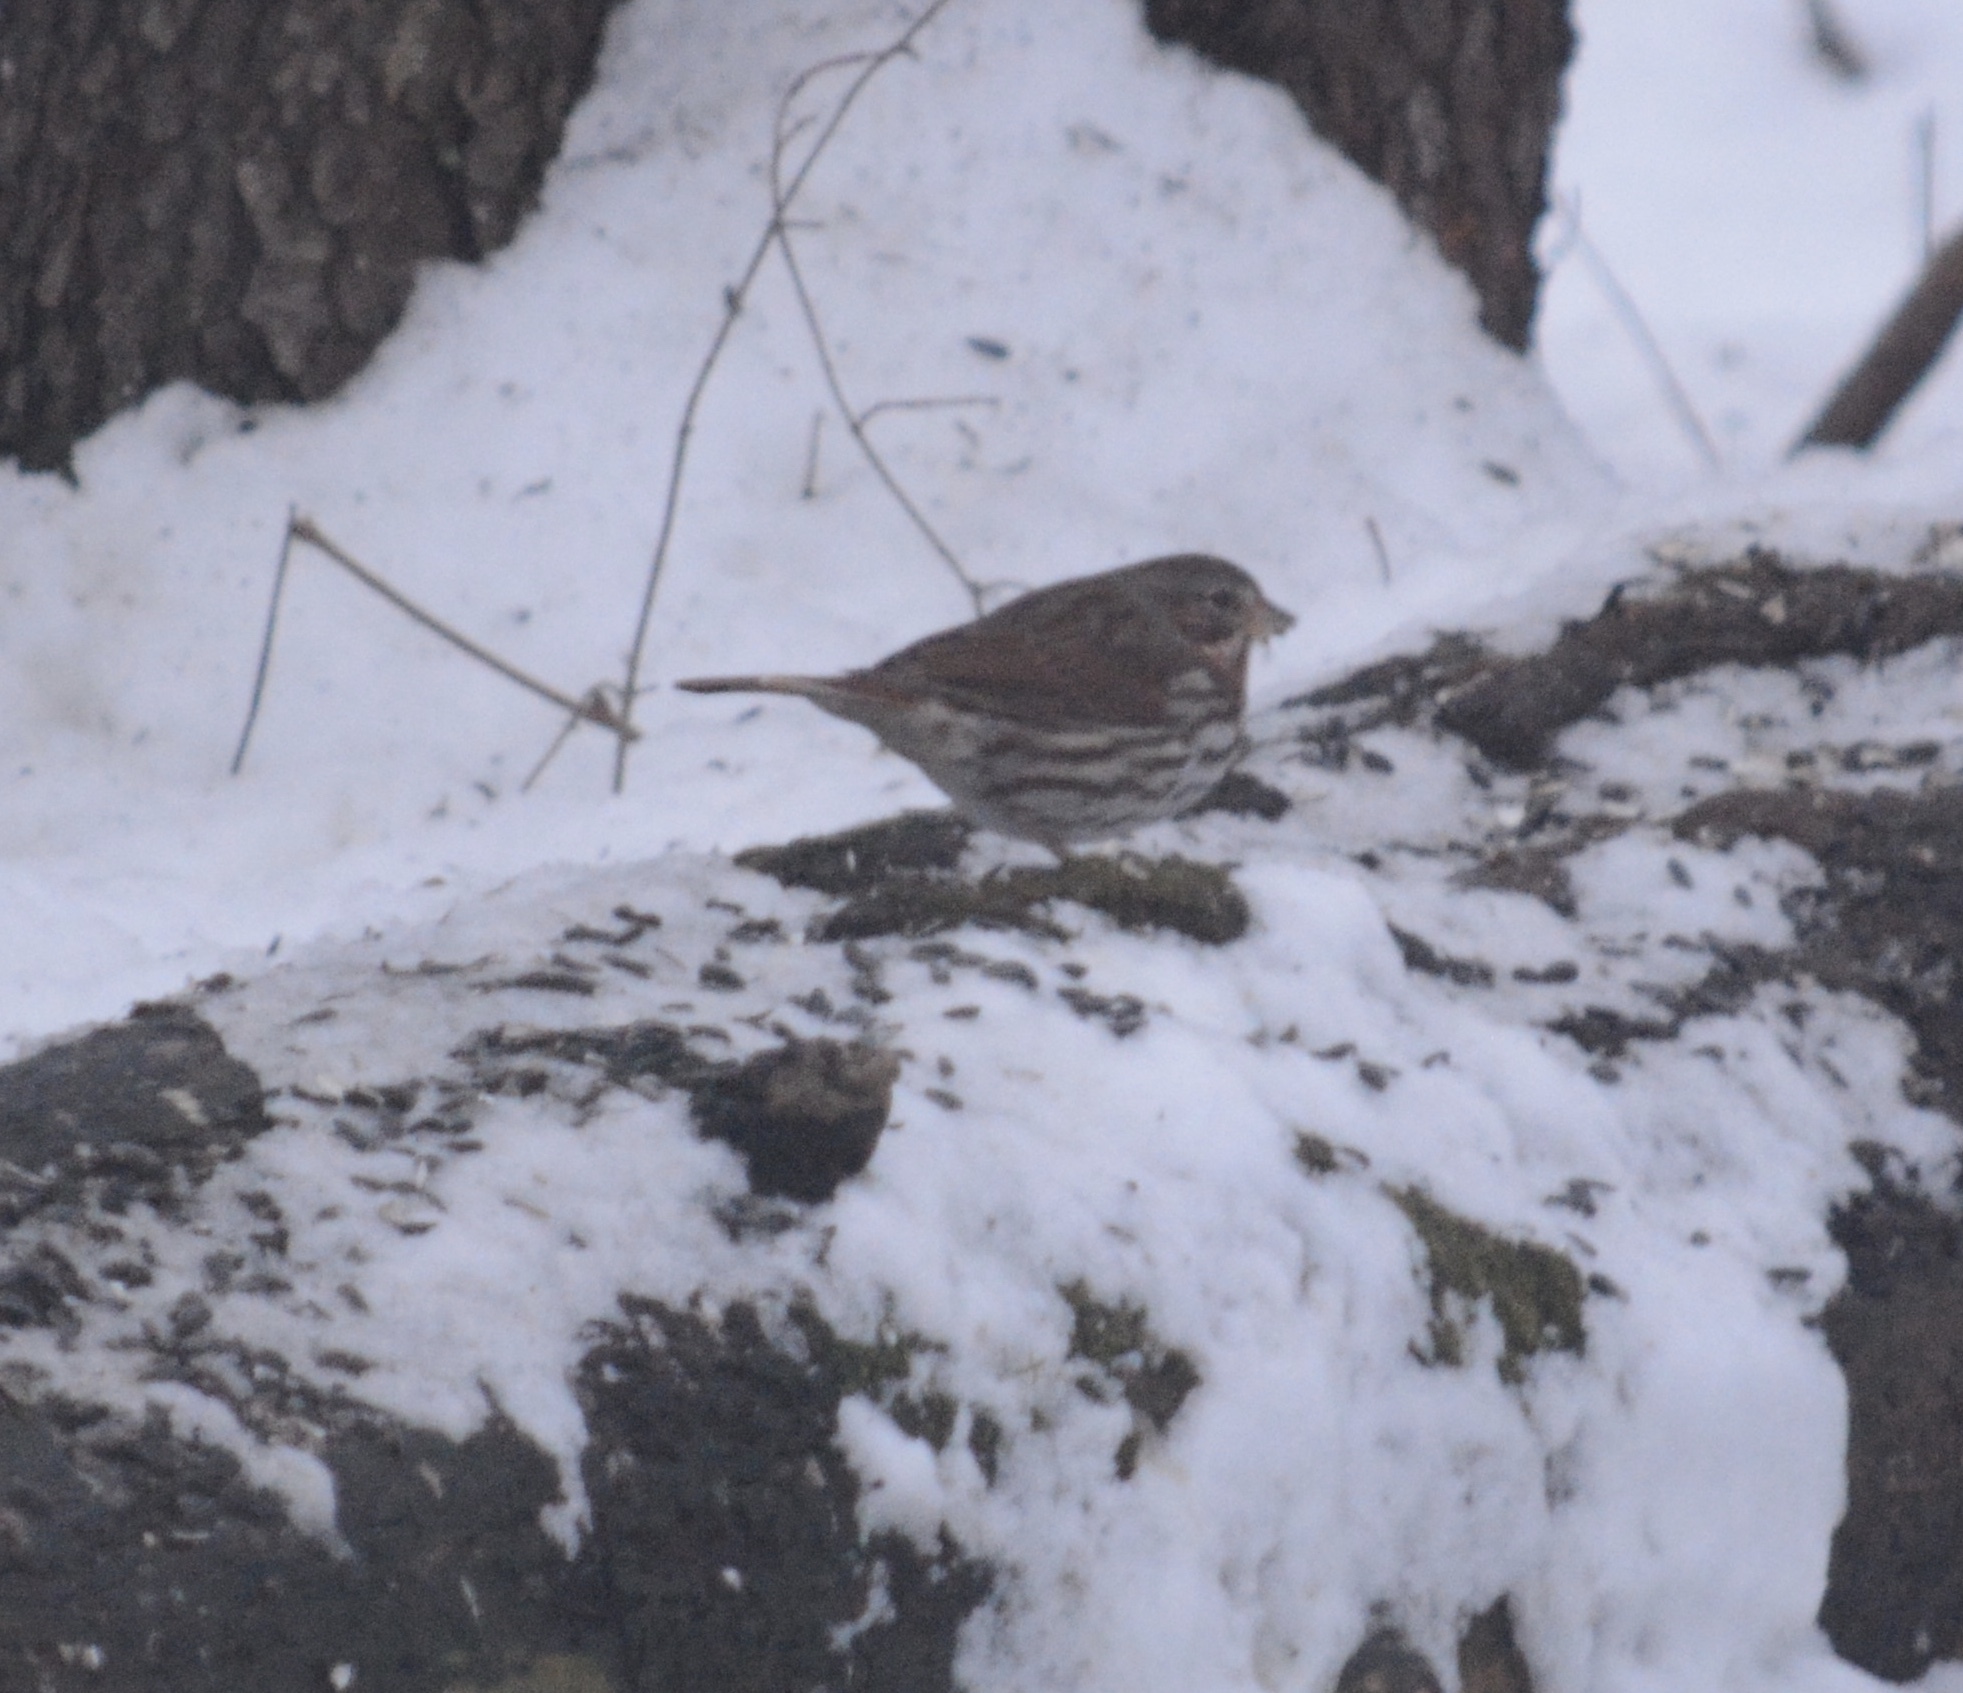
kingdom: Animalia
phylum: Chordata
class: Aves
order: Passeriformes
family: Passerellidae
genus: Passerella
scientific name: Passerella iliaca
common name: Fox sparrow
